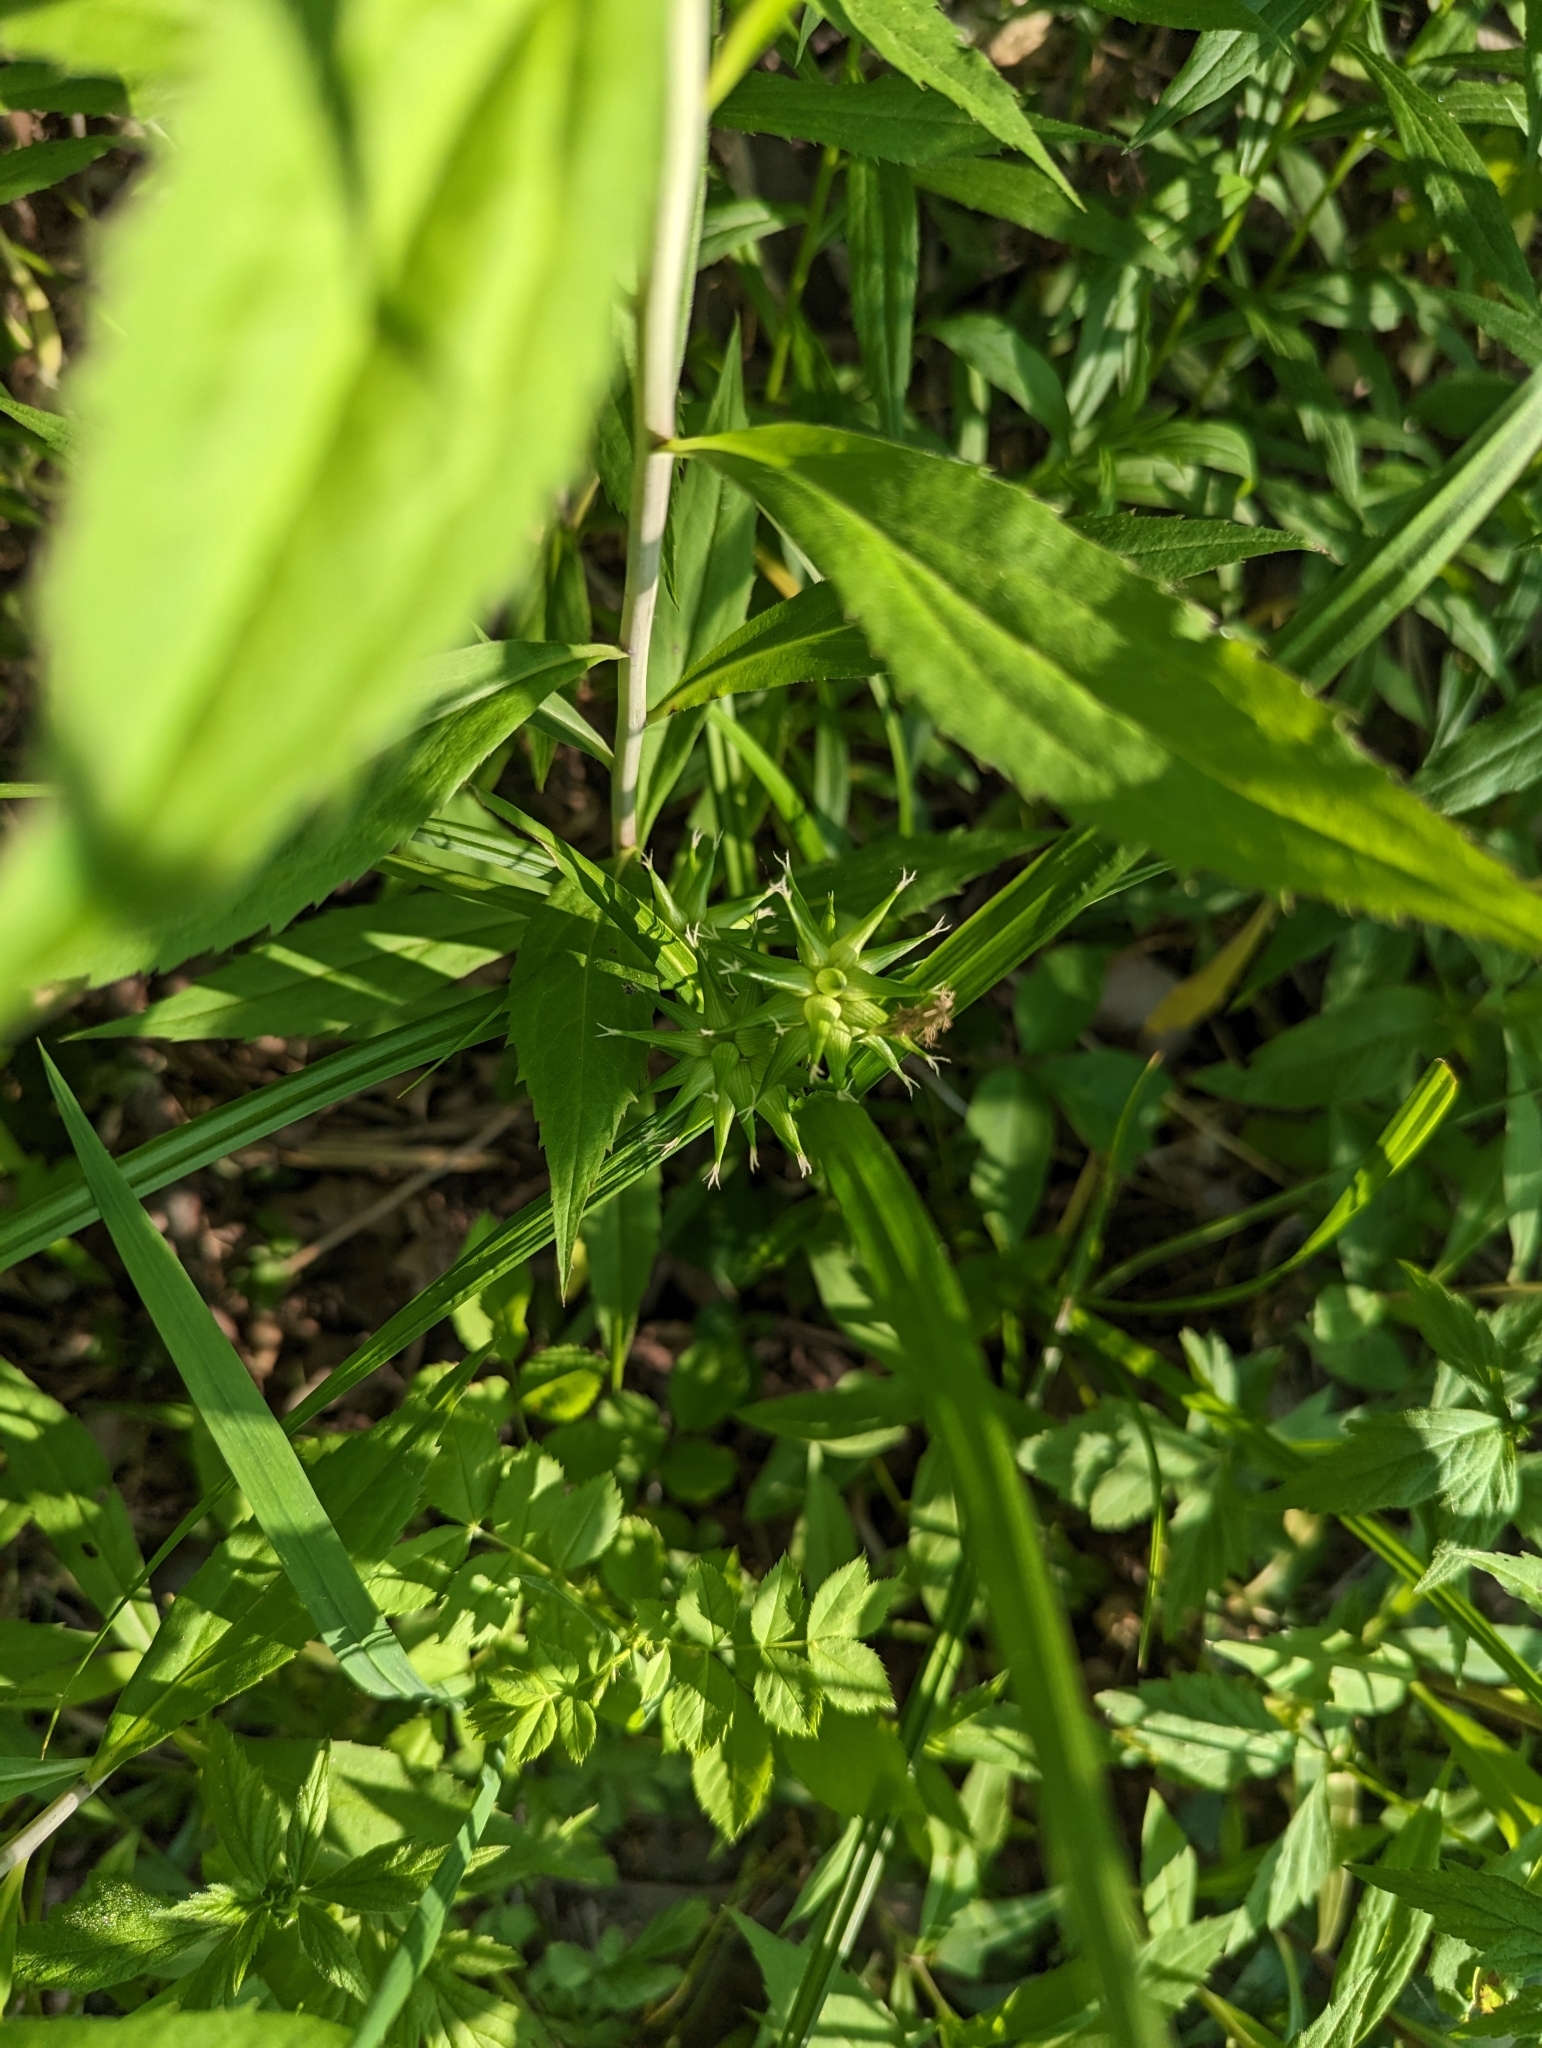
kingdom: Plantae
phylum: Tracheophyta
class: Liliopsida
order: Poales
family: Cyperaceae
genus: Carex
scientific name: Carex grayi
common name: Asa gray's sedge
